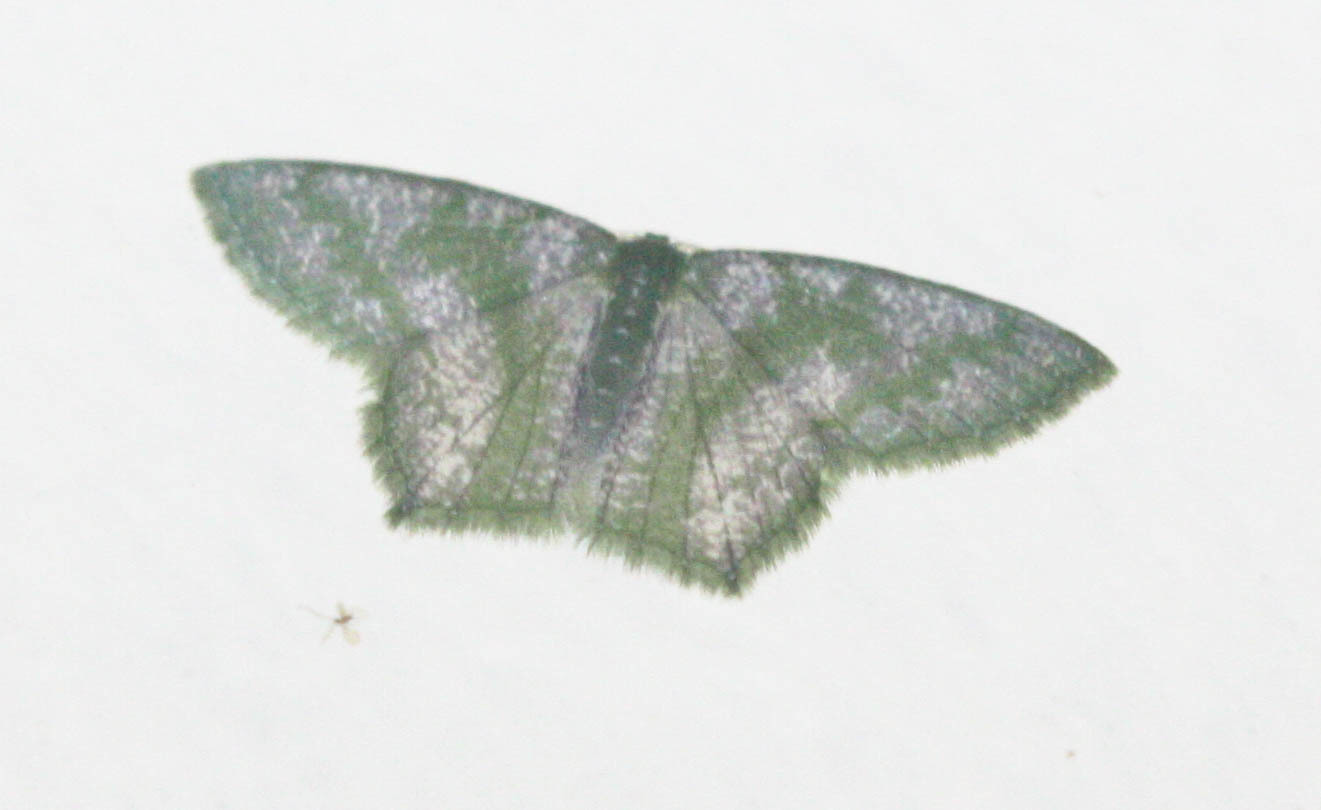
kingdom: Animalia
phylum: Arthropoda
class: Insecta
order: Lepidoptera
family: Geometridae
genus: Maxates
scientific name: Maxates thetydaria
